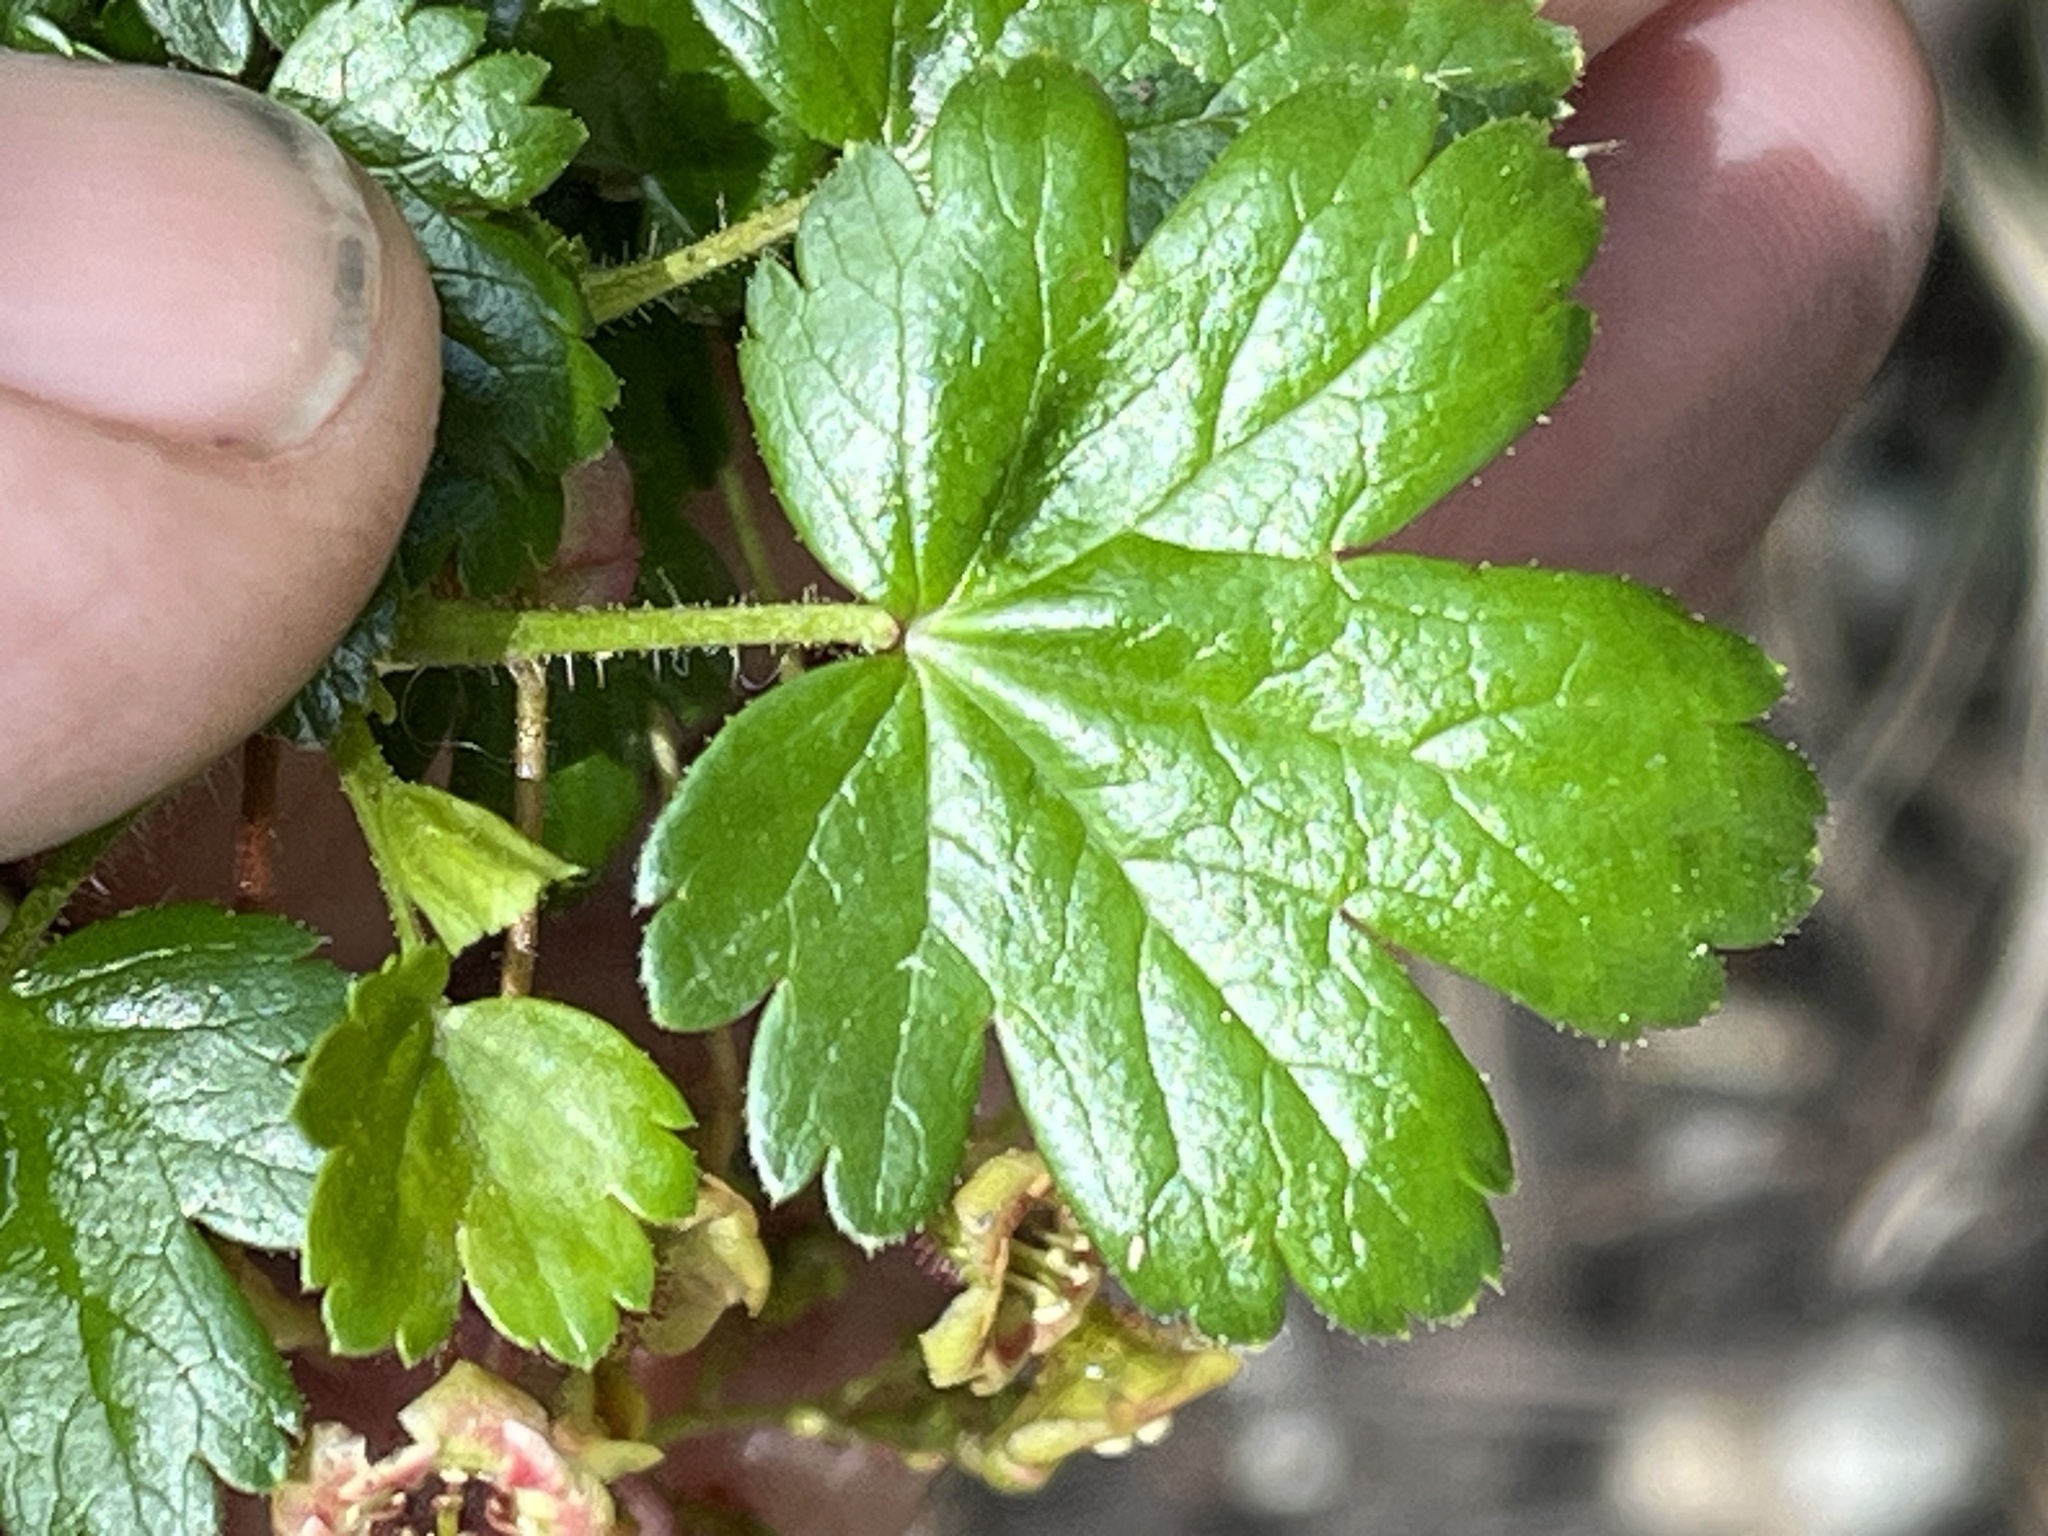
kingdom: Plantae
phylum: Tracheophyta
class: Magnoliopsida
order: Saxifragales
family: Grossulariaceae
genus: Ribes
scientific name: Ribes lacustre
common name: Black gooseberry
